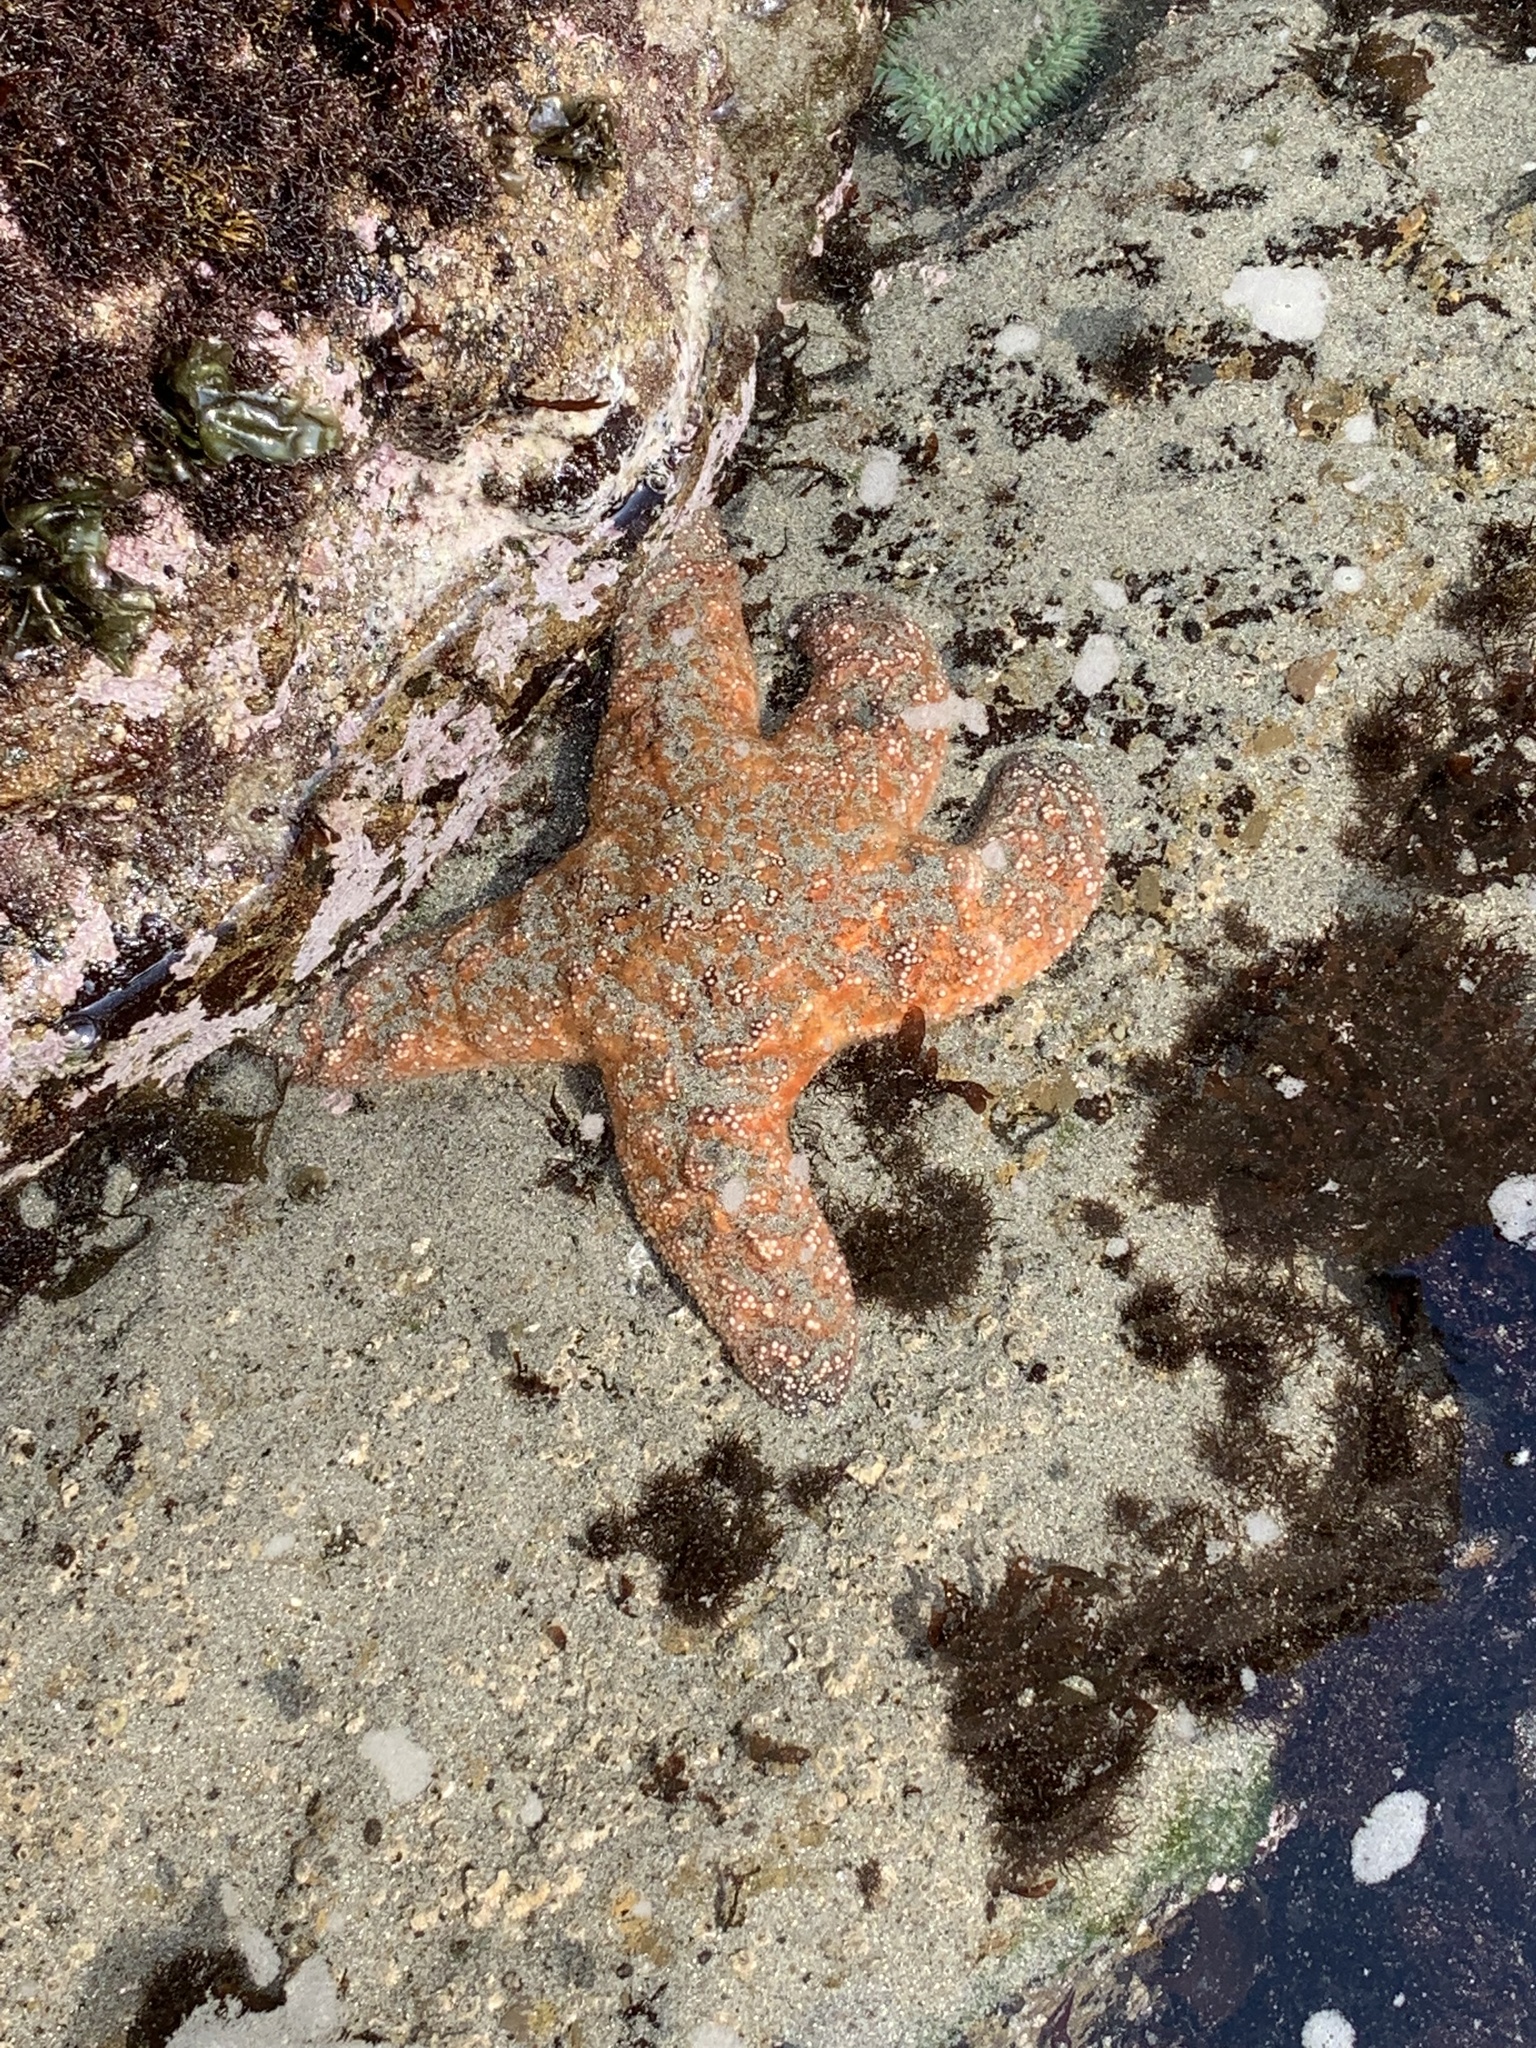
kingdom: Animalia
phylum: Echinodermata
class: Asteroidea
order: Forcipulatida
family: Asteriidae
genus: Pisaster
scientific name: Pisaster ochraceus
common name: Ochre stars
